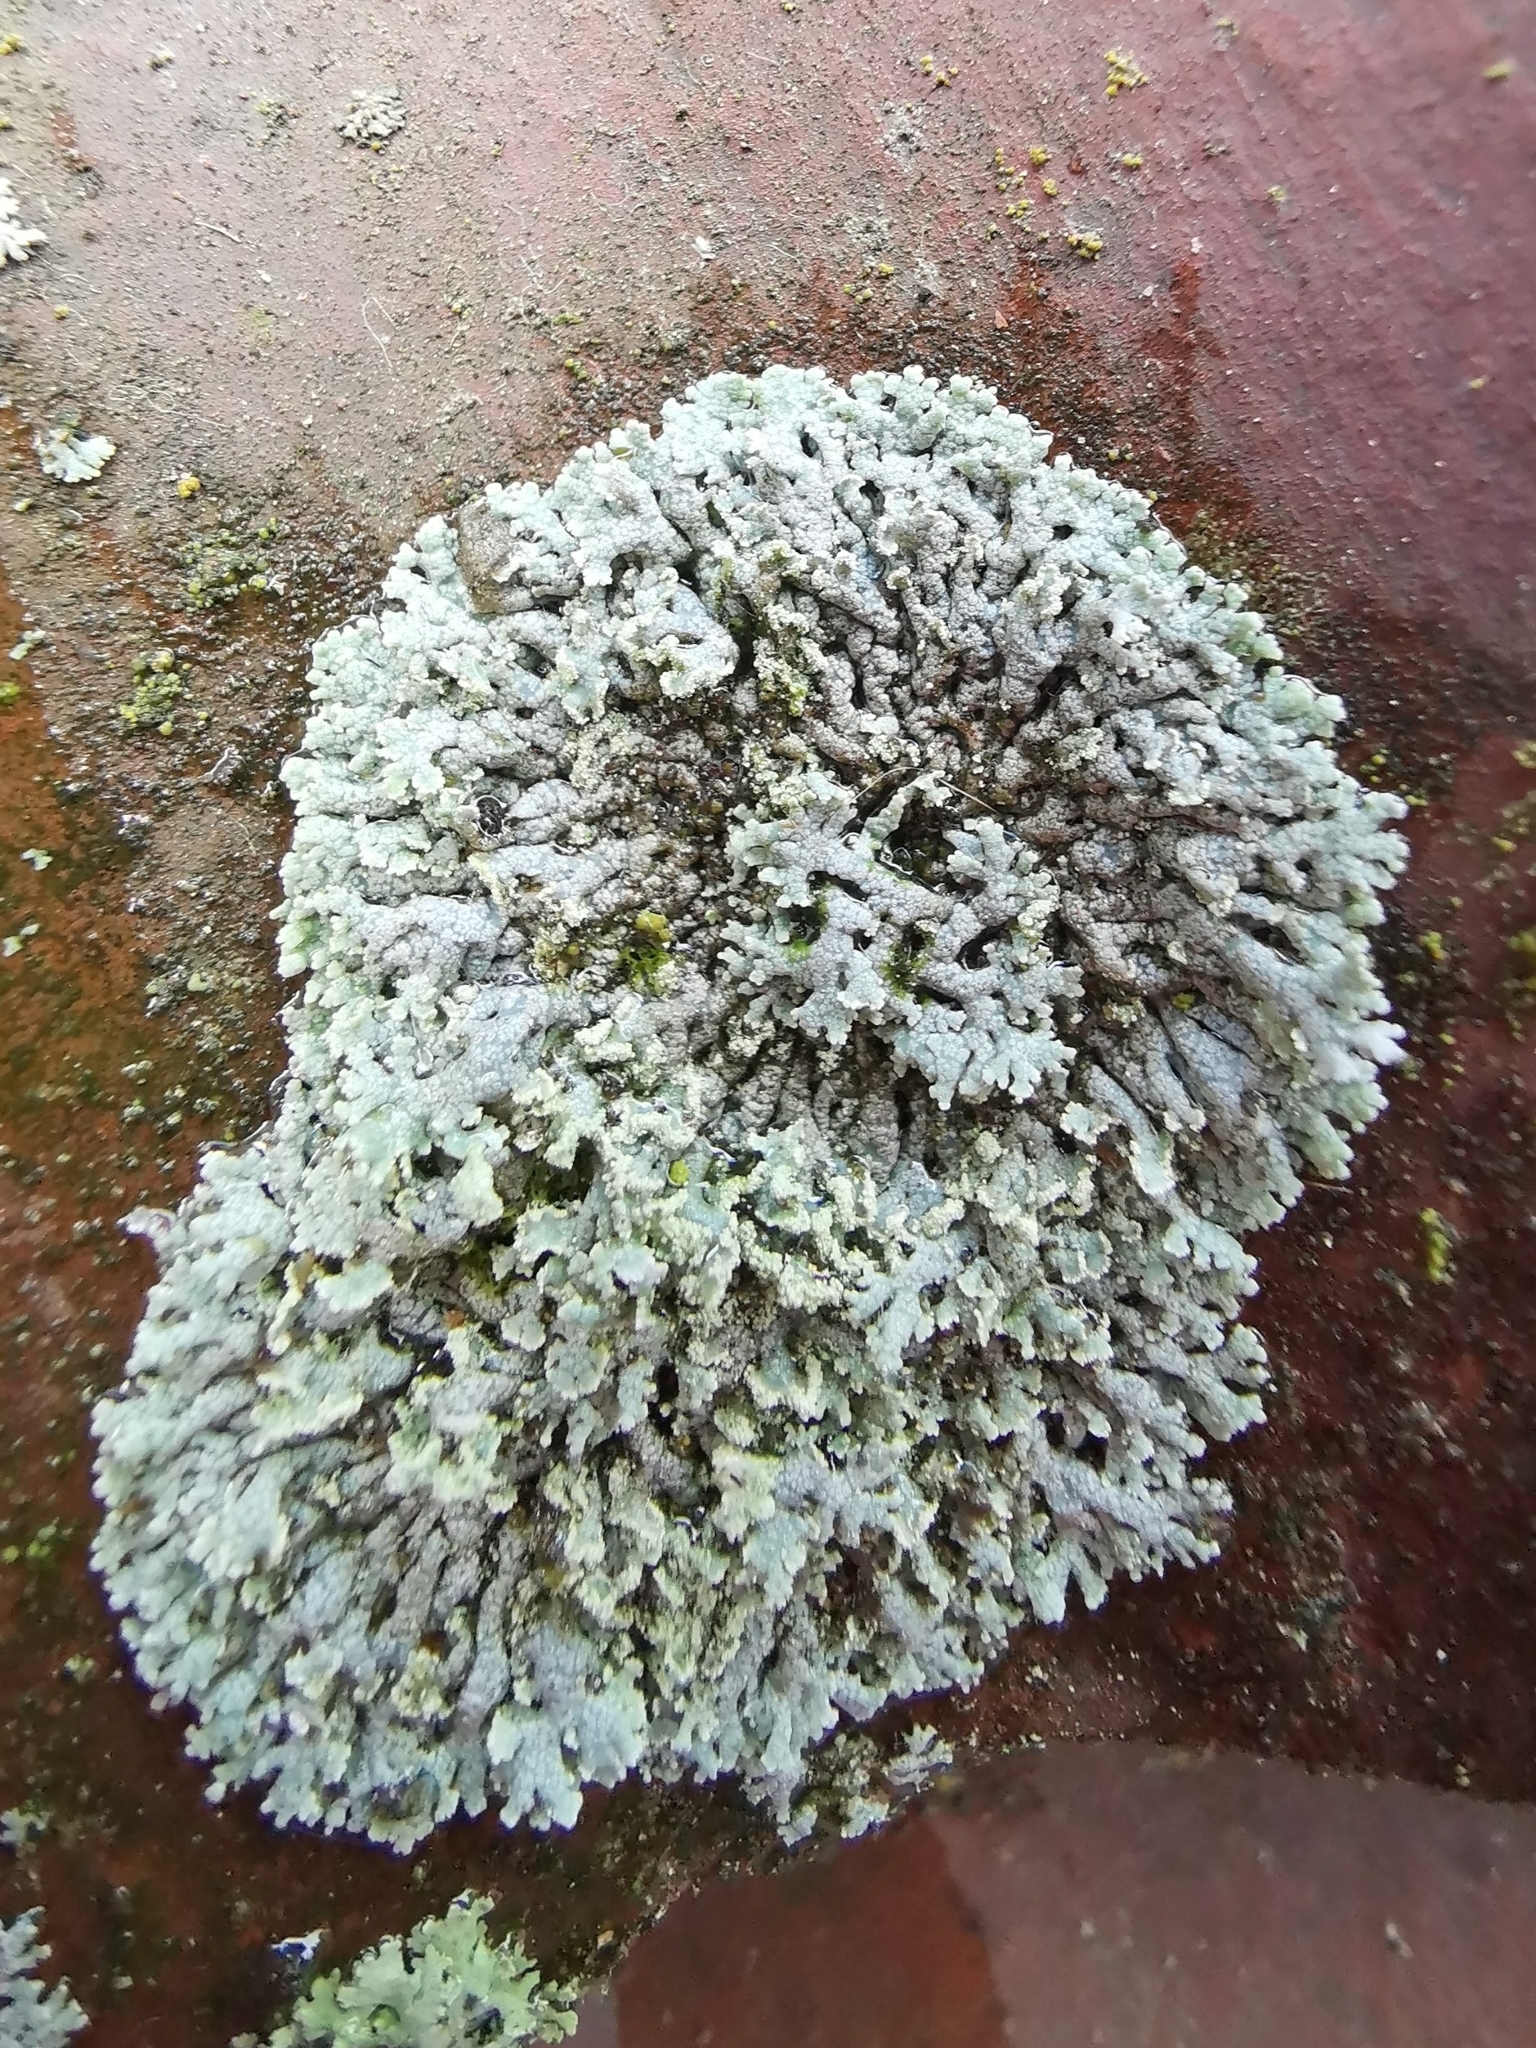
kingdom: Fungi
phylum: Ascomycota
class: Lecanoromycetes
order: Caliciales
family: Physciaceae
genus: Physcia
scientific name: Physcia caesia
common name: Blue-gray rosette lichen
